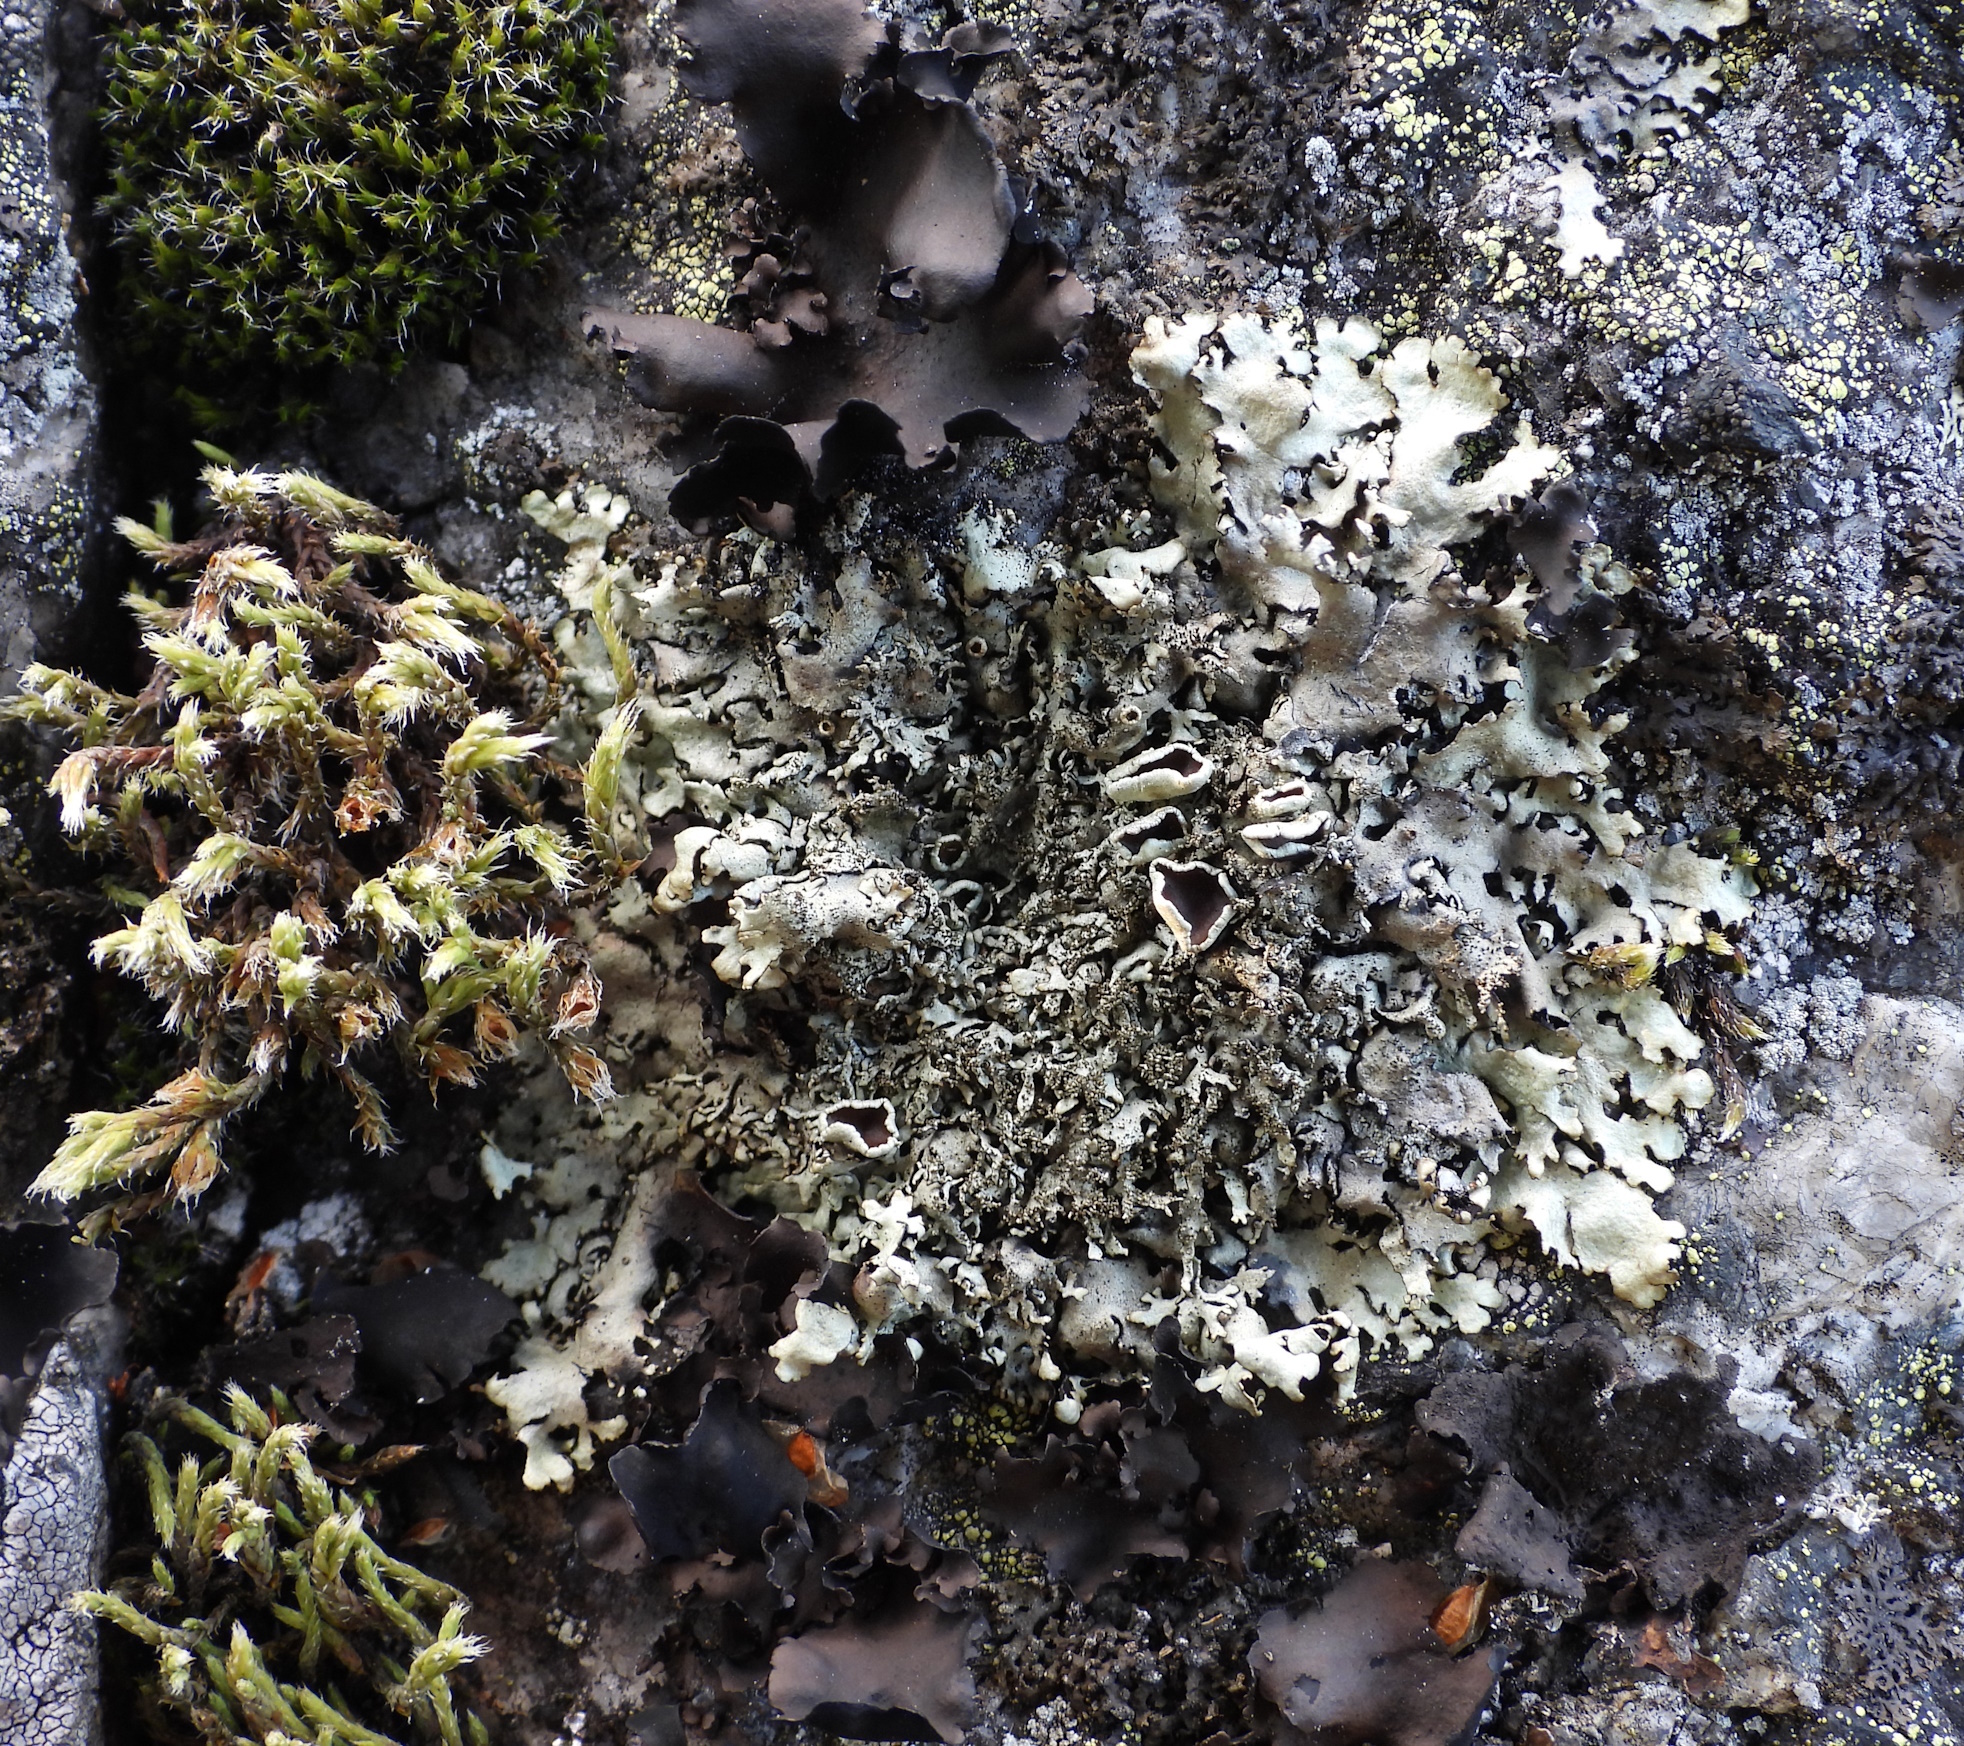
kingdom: Fungi
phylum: Ascomycota
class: Lecanoromycetes
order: Lecanorales
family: Parmeliaceae
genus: Xanthoparmelia
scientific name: Xanthoparmelia conspersa
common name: Peppered rock shield
